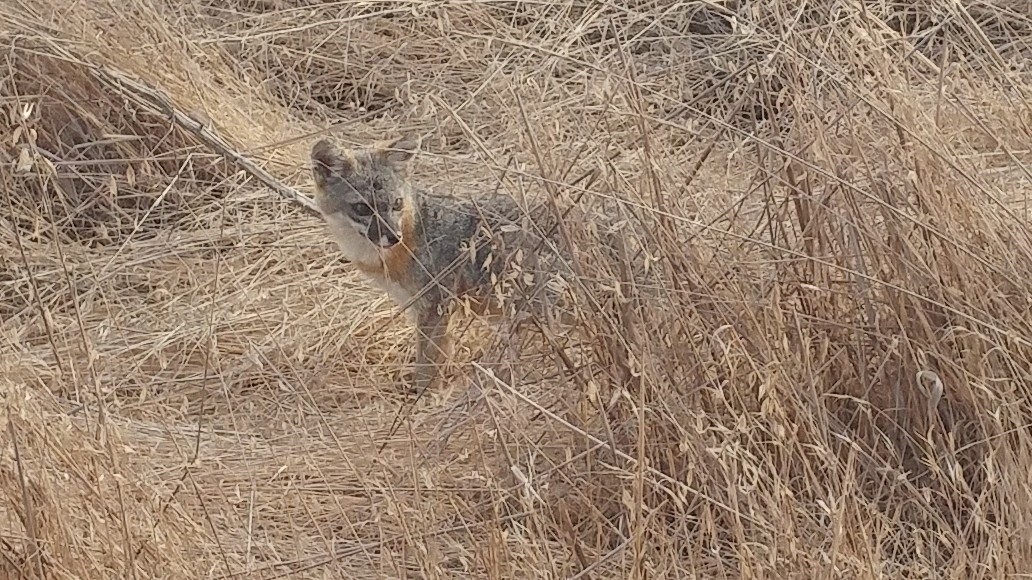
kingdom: Animalia
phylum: Chordata
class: Mammalia
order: Carnivora
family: Canidae
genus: Urocyon
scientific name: Urocyon littoralis
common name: Island gray fox
